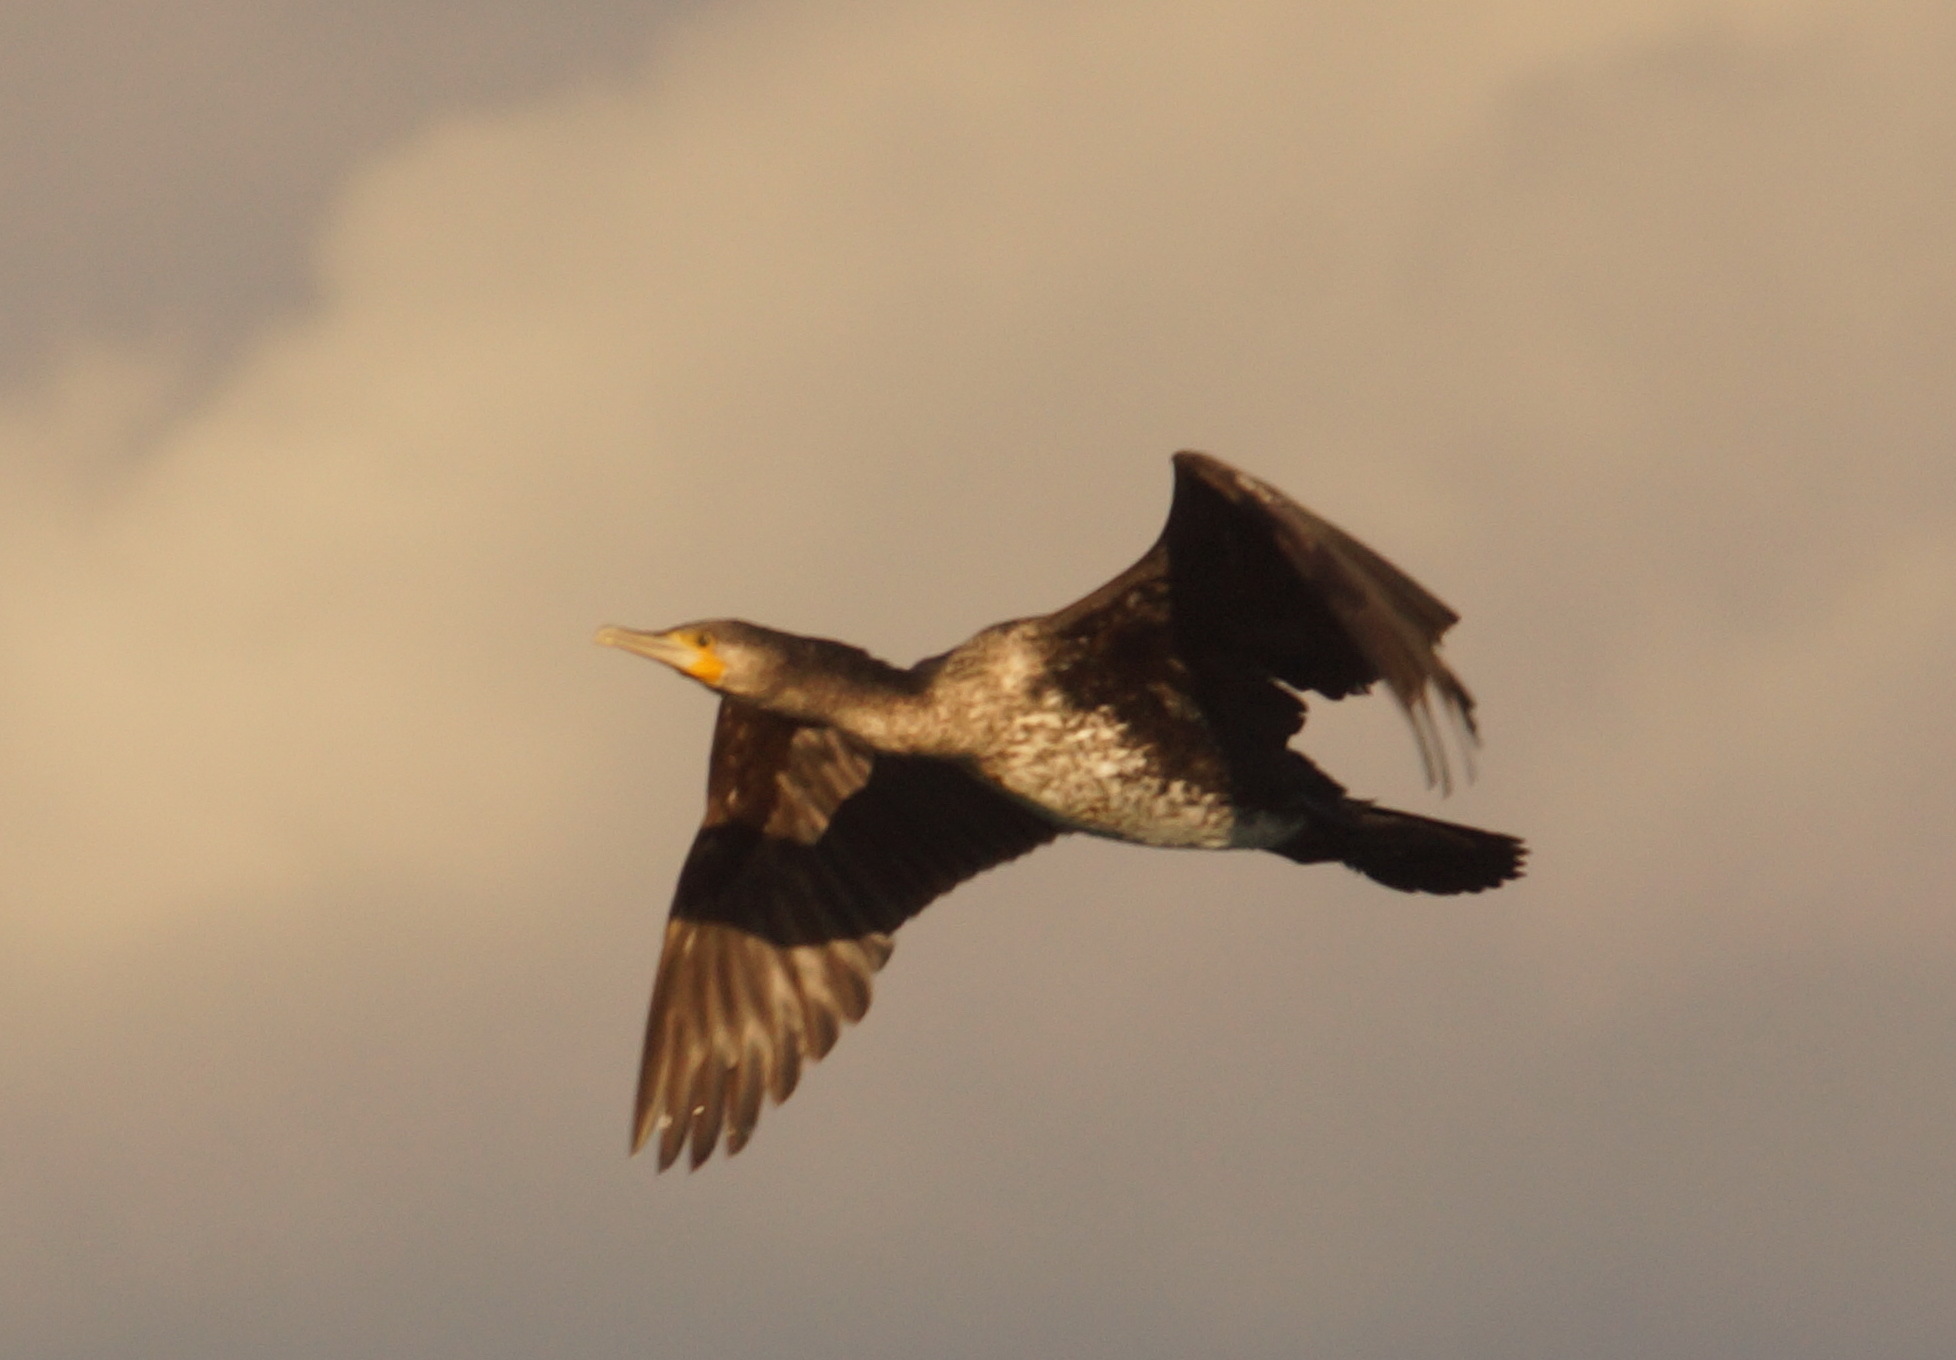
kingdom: Animalia
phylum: Chordata
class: Aves
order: Suliformes
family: Phalacrocoracidae
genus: Phalacrocorax
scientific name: Phalacrocorax carbo
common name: Great cormorant
